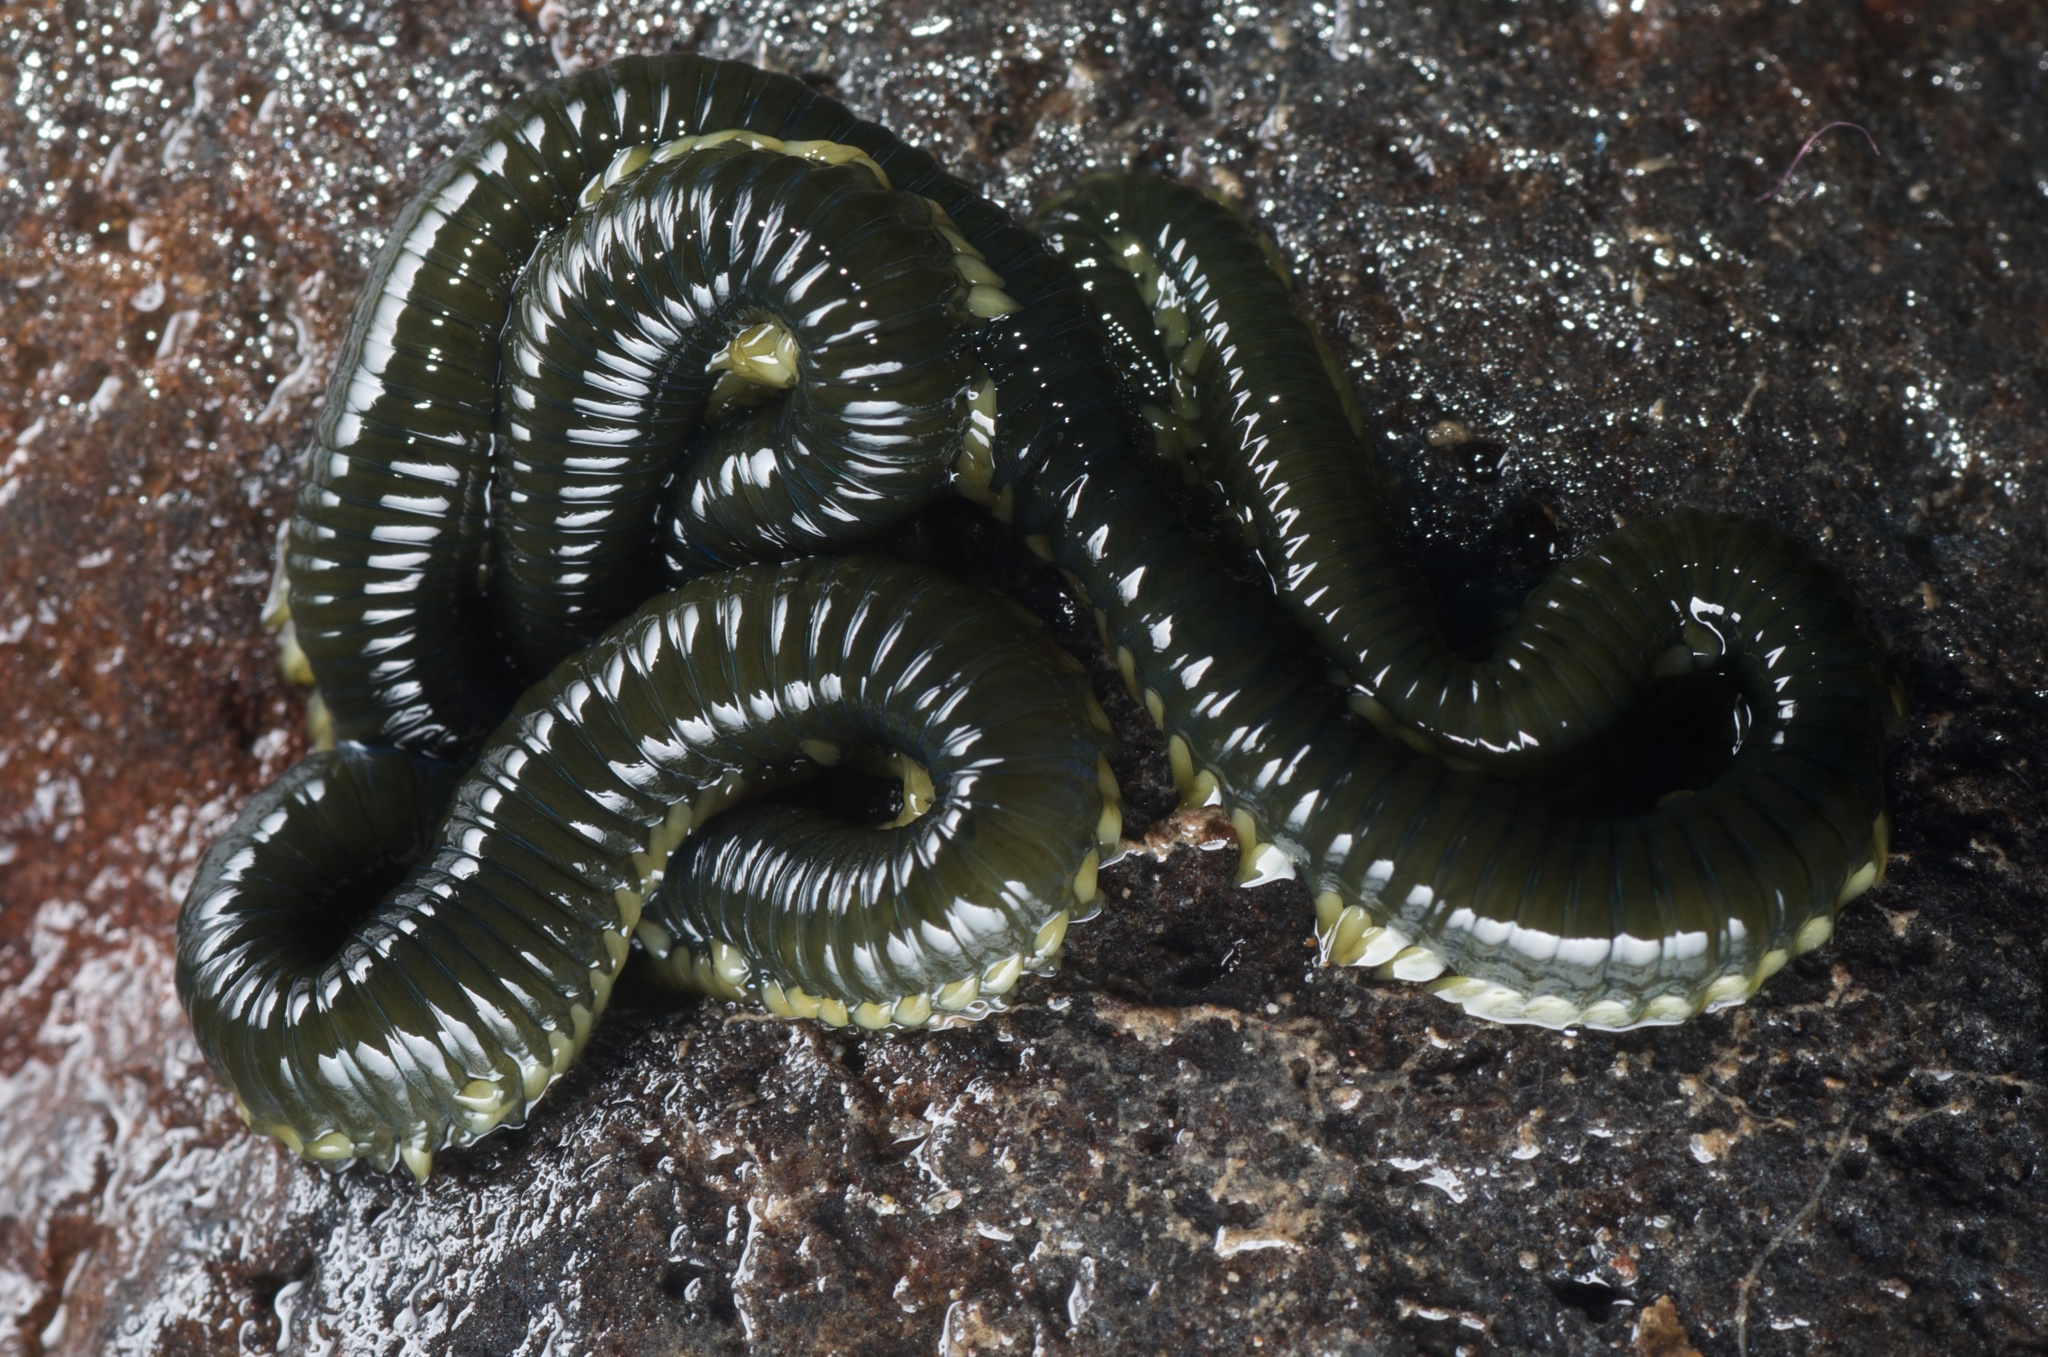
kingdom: Animalia
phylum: Annelida
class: Polychaeta
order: Phyllodocida
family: Phyllodocidae
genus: Eulalia
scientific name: Eulalia microphylla
